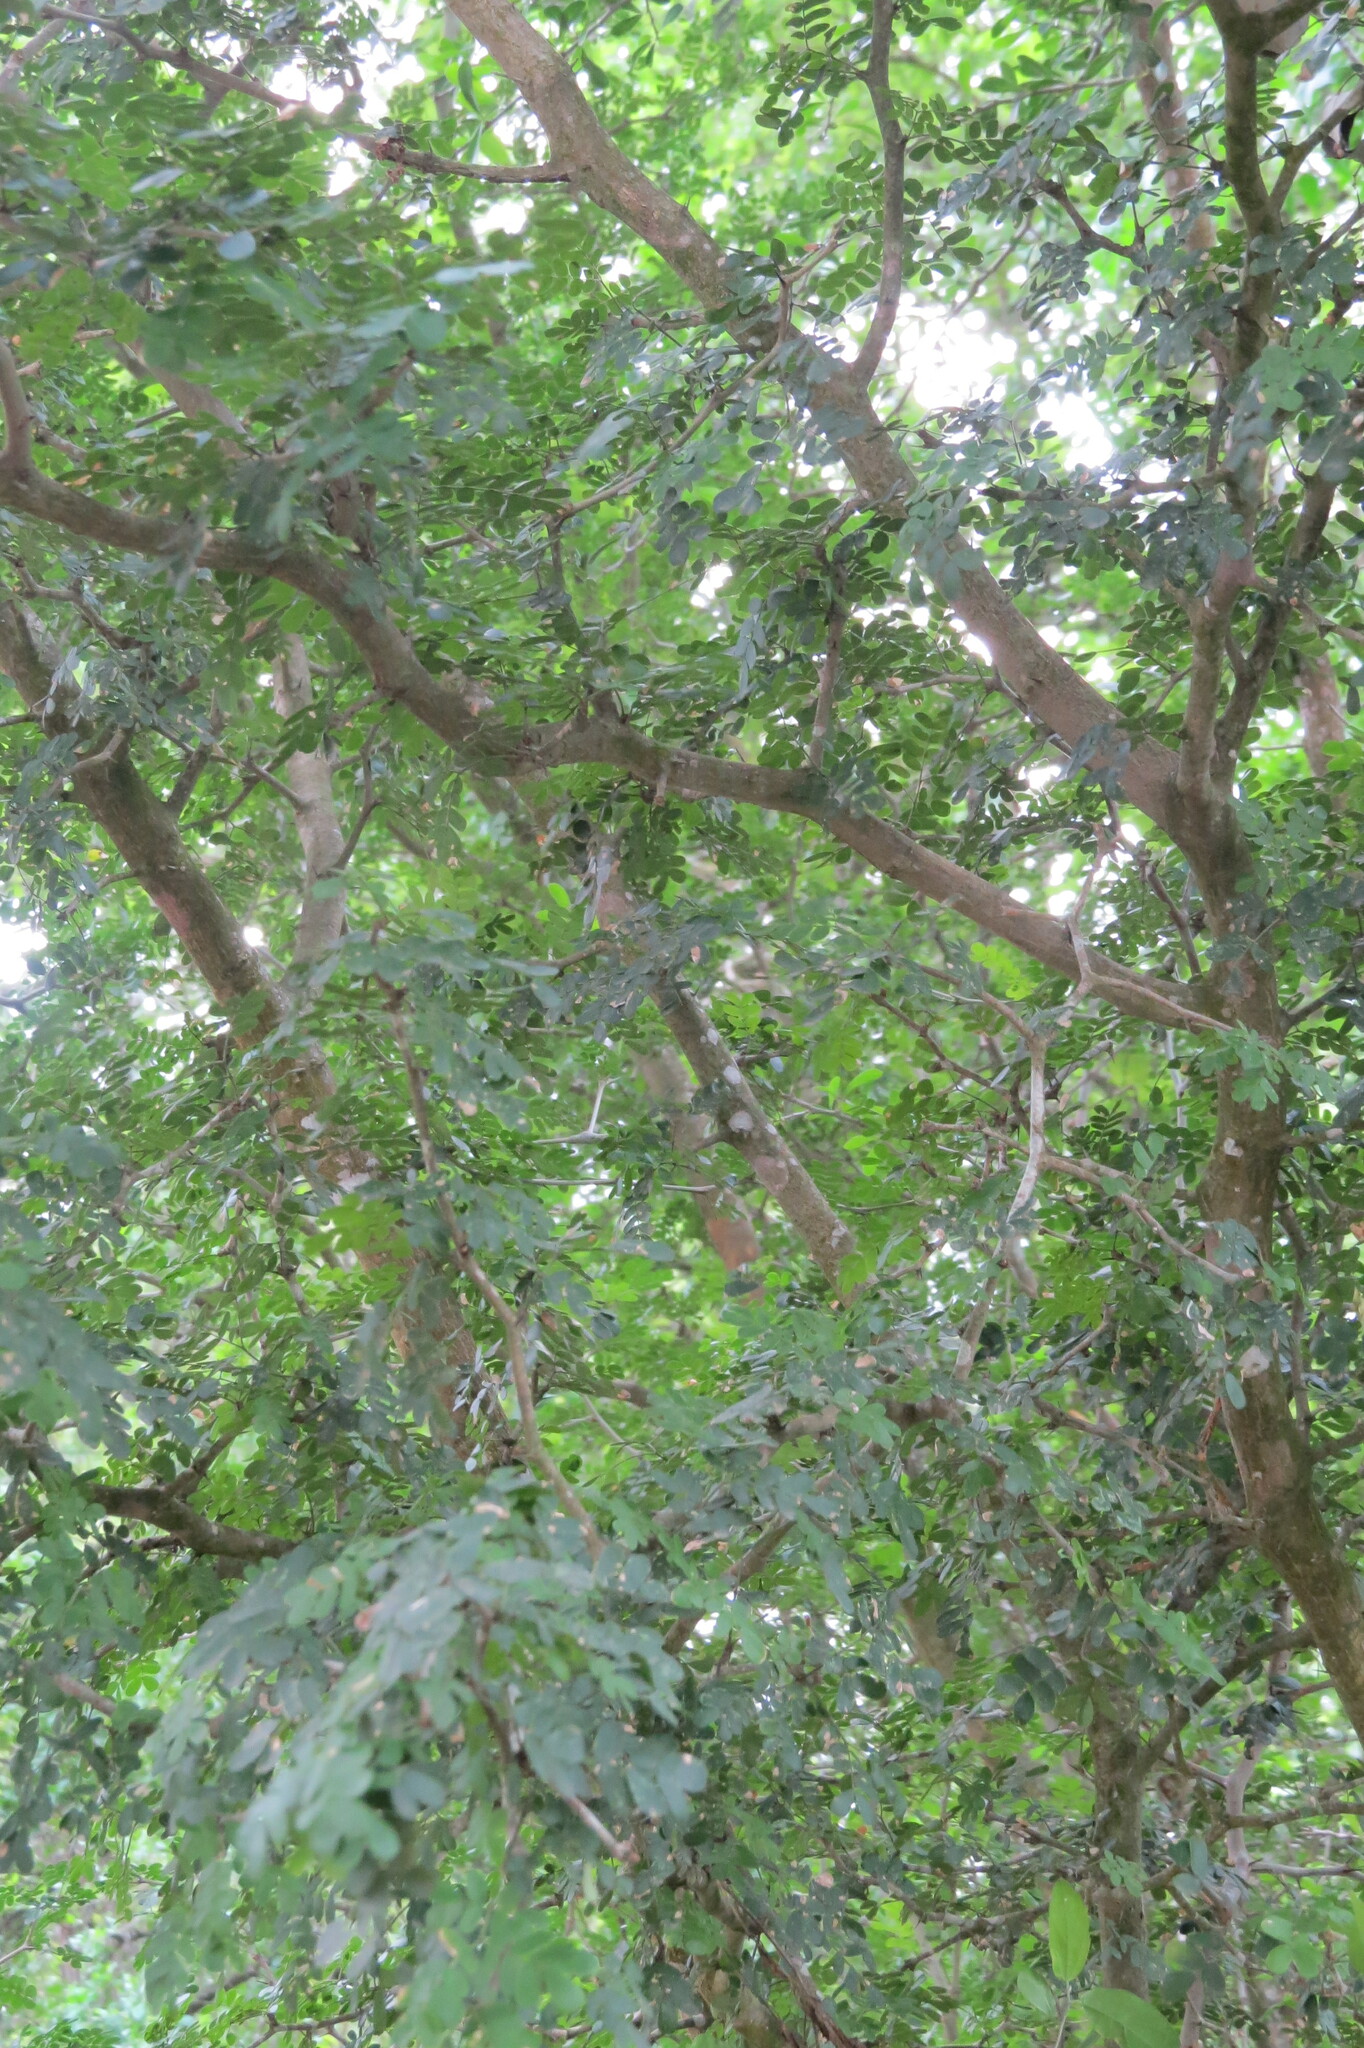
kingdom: Plantae
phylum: Tracheophyta
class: Magnoliopsida
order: Fabales
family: Fabaceae
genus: Ebenopsis
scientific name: Ebenopsis ebano
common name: Ebony blackbead
